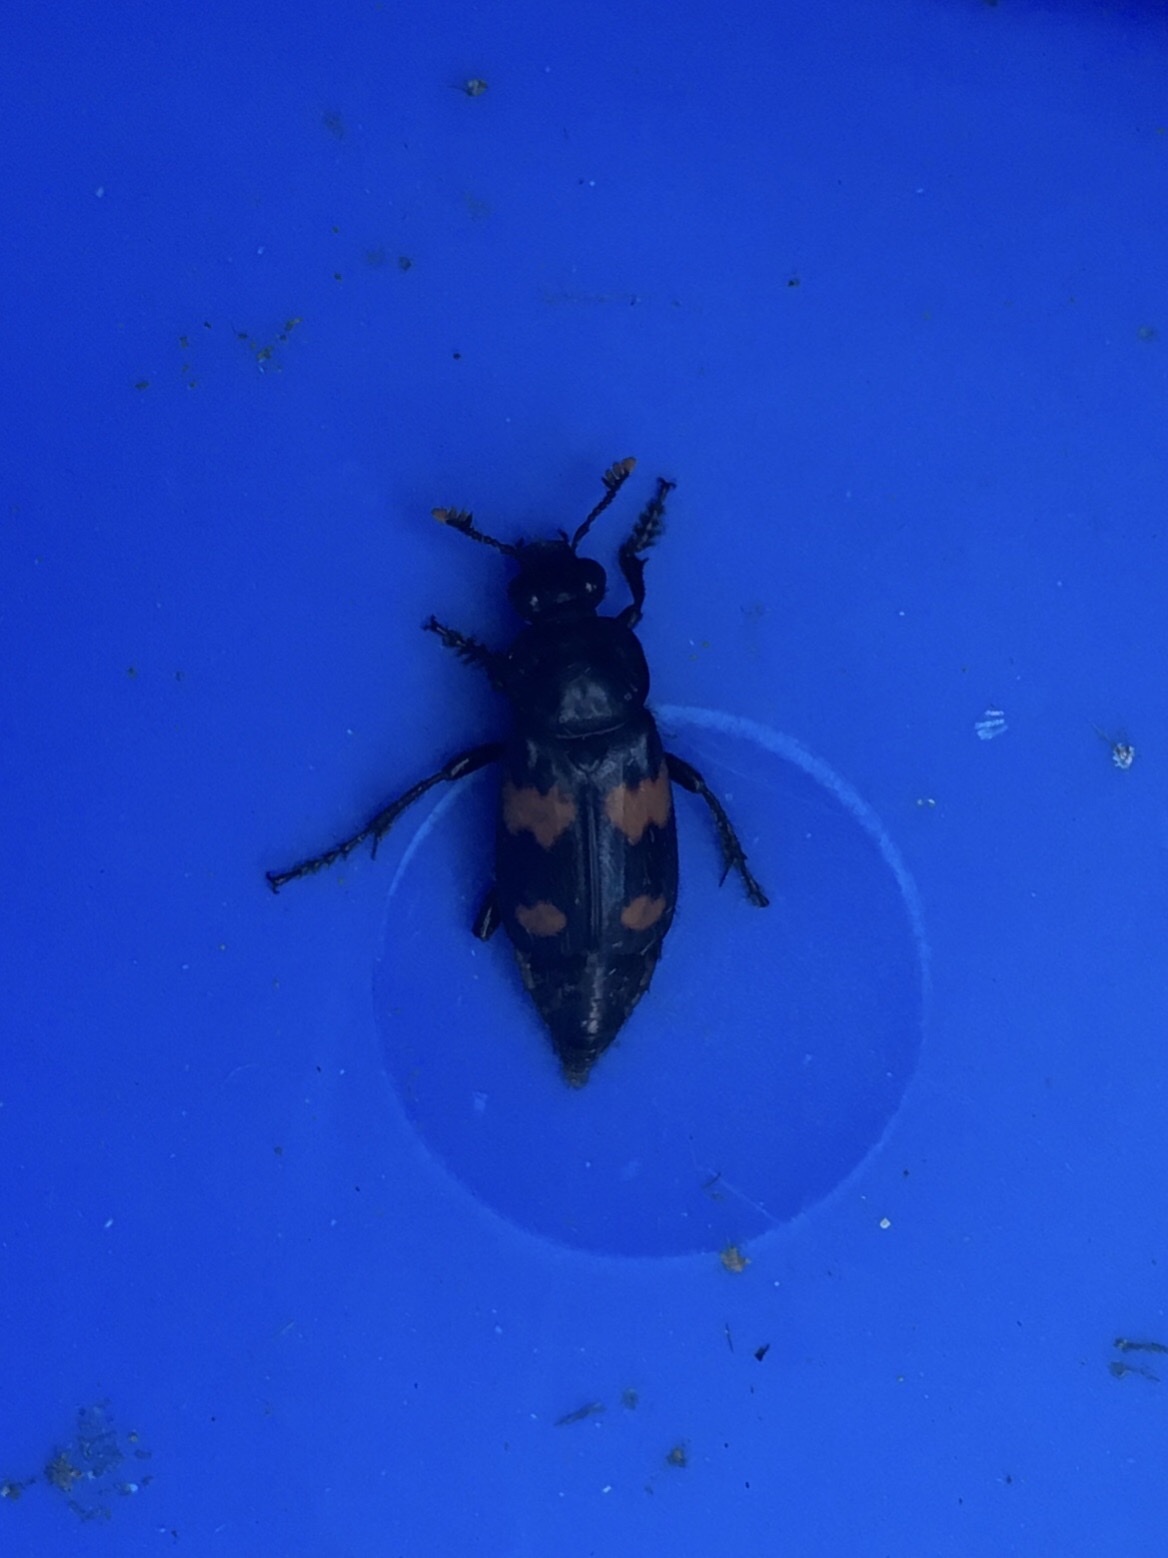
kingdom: Animalia
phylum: Arthropoda
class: Insecta
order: Coleoptera
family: Staphylinidae
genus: Nicrophorus
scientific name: Nicrophorus orbicollis
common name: Roundneck sexton beetle
